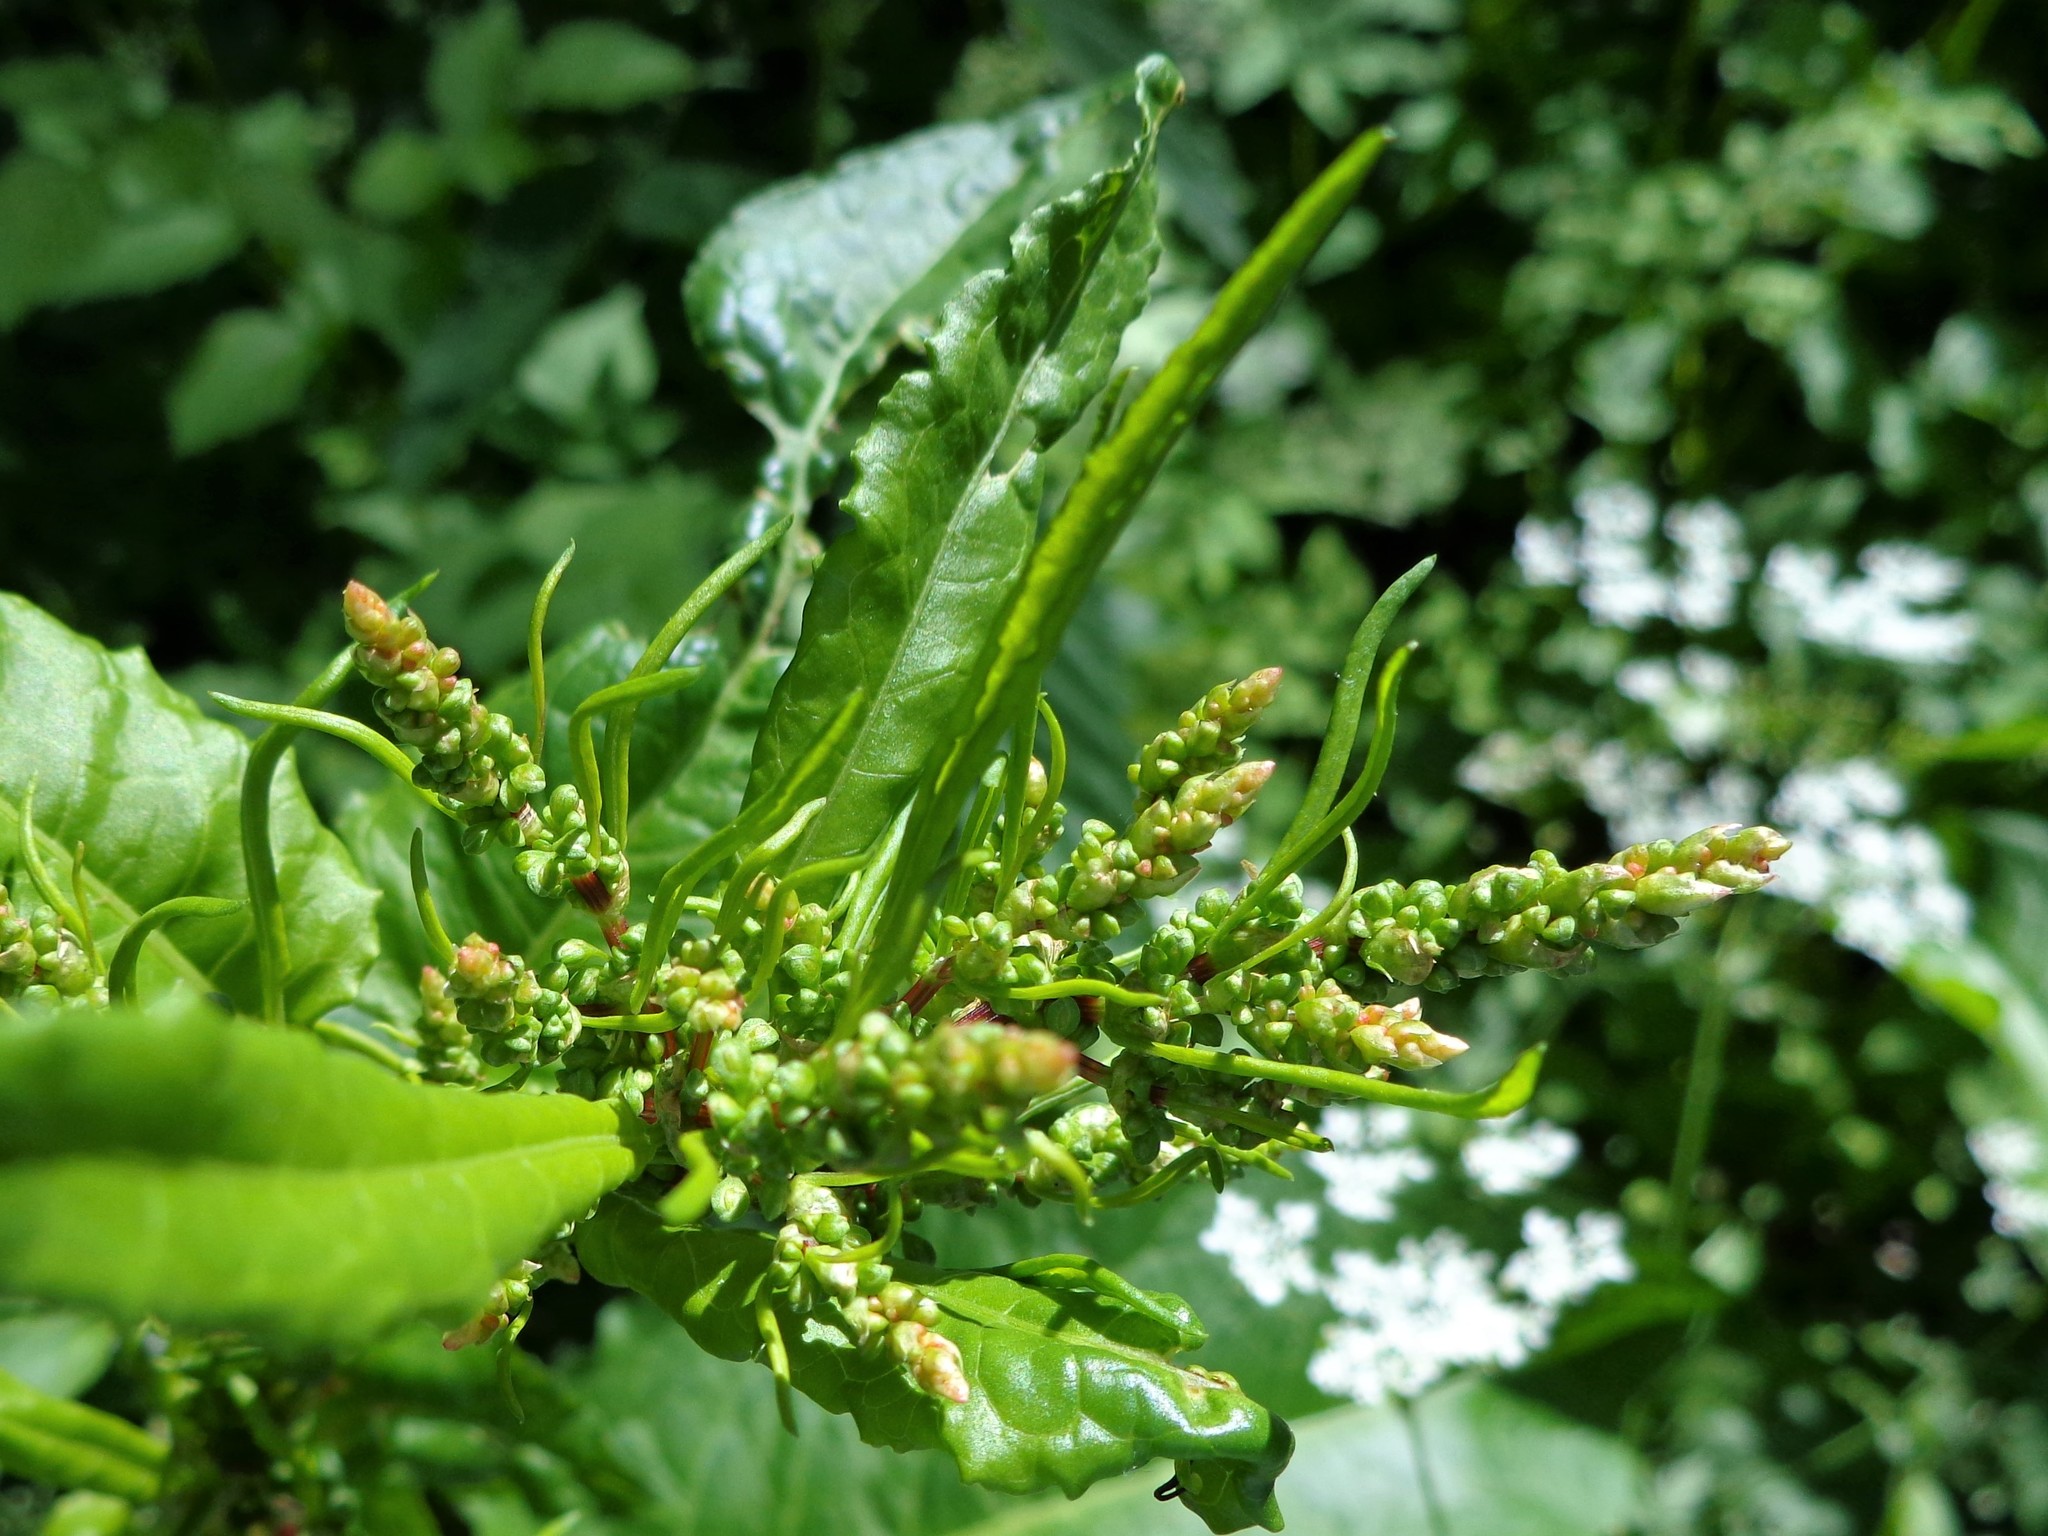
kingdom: Plantae
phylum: Tracheophyta
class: Magnoliopsida
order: Caryophyllales
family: Polygonaceae
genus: Rumex
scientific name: Rumex obtusifolius
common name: Bitter dock
